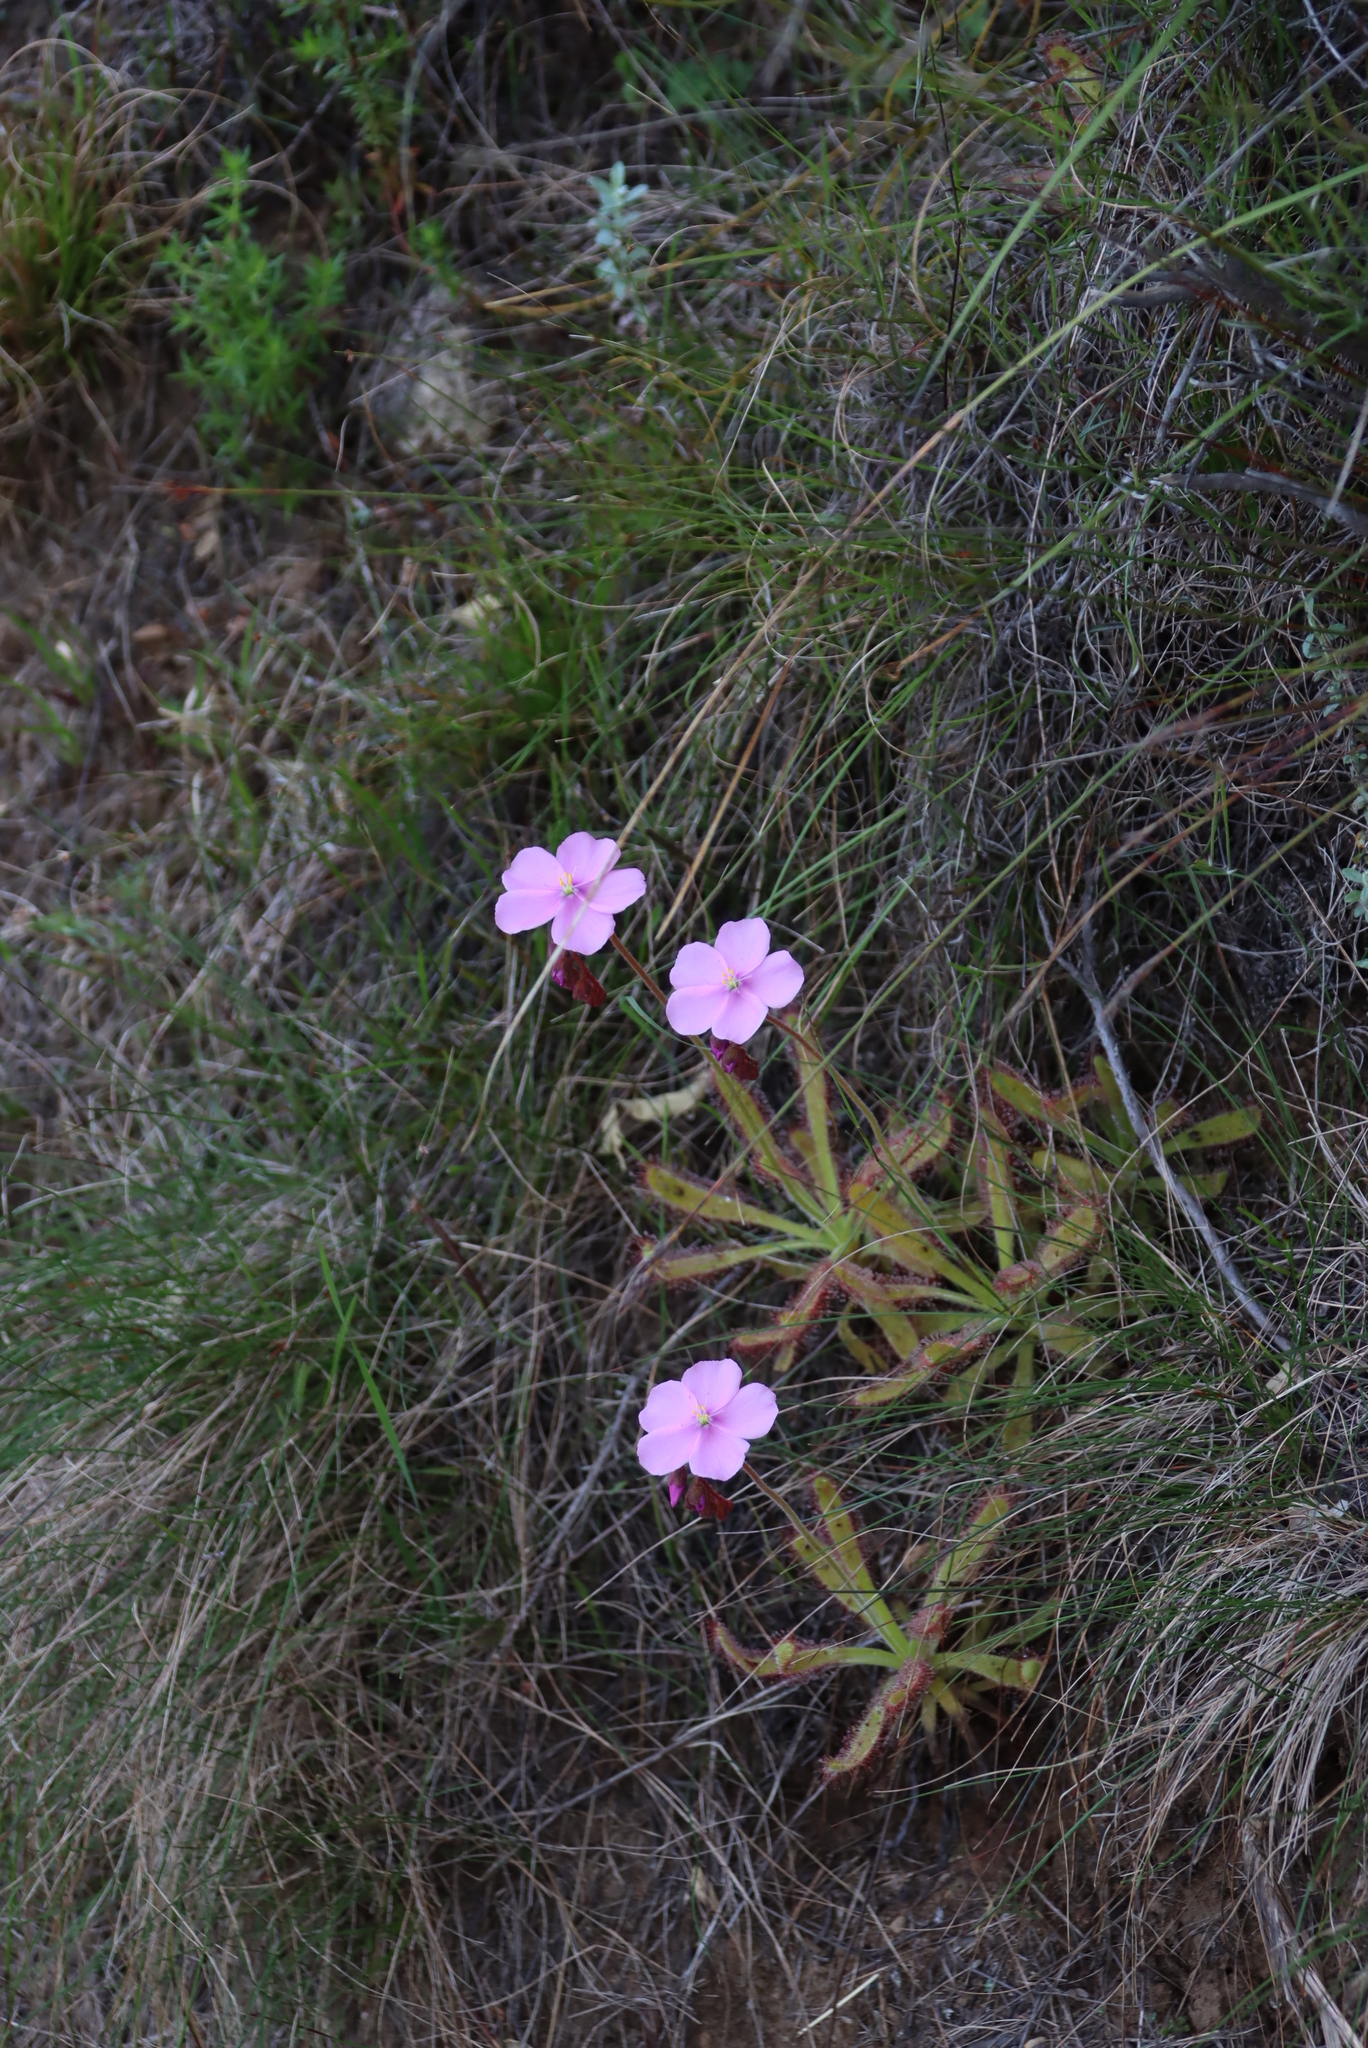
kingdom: Plantae
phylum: Tracheophyta
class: Magnoliopsida
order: Caryophyllales
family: Droseraceae
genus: Drosera
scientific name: Drosera hilaris
